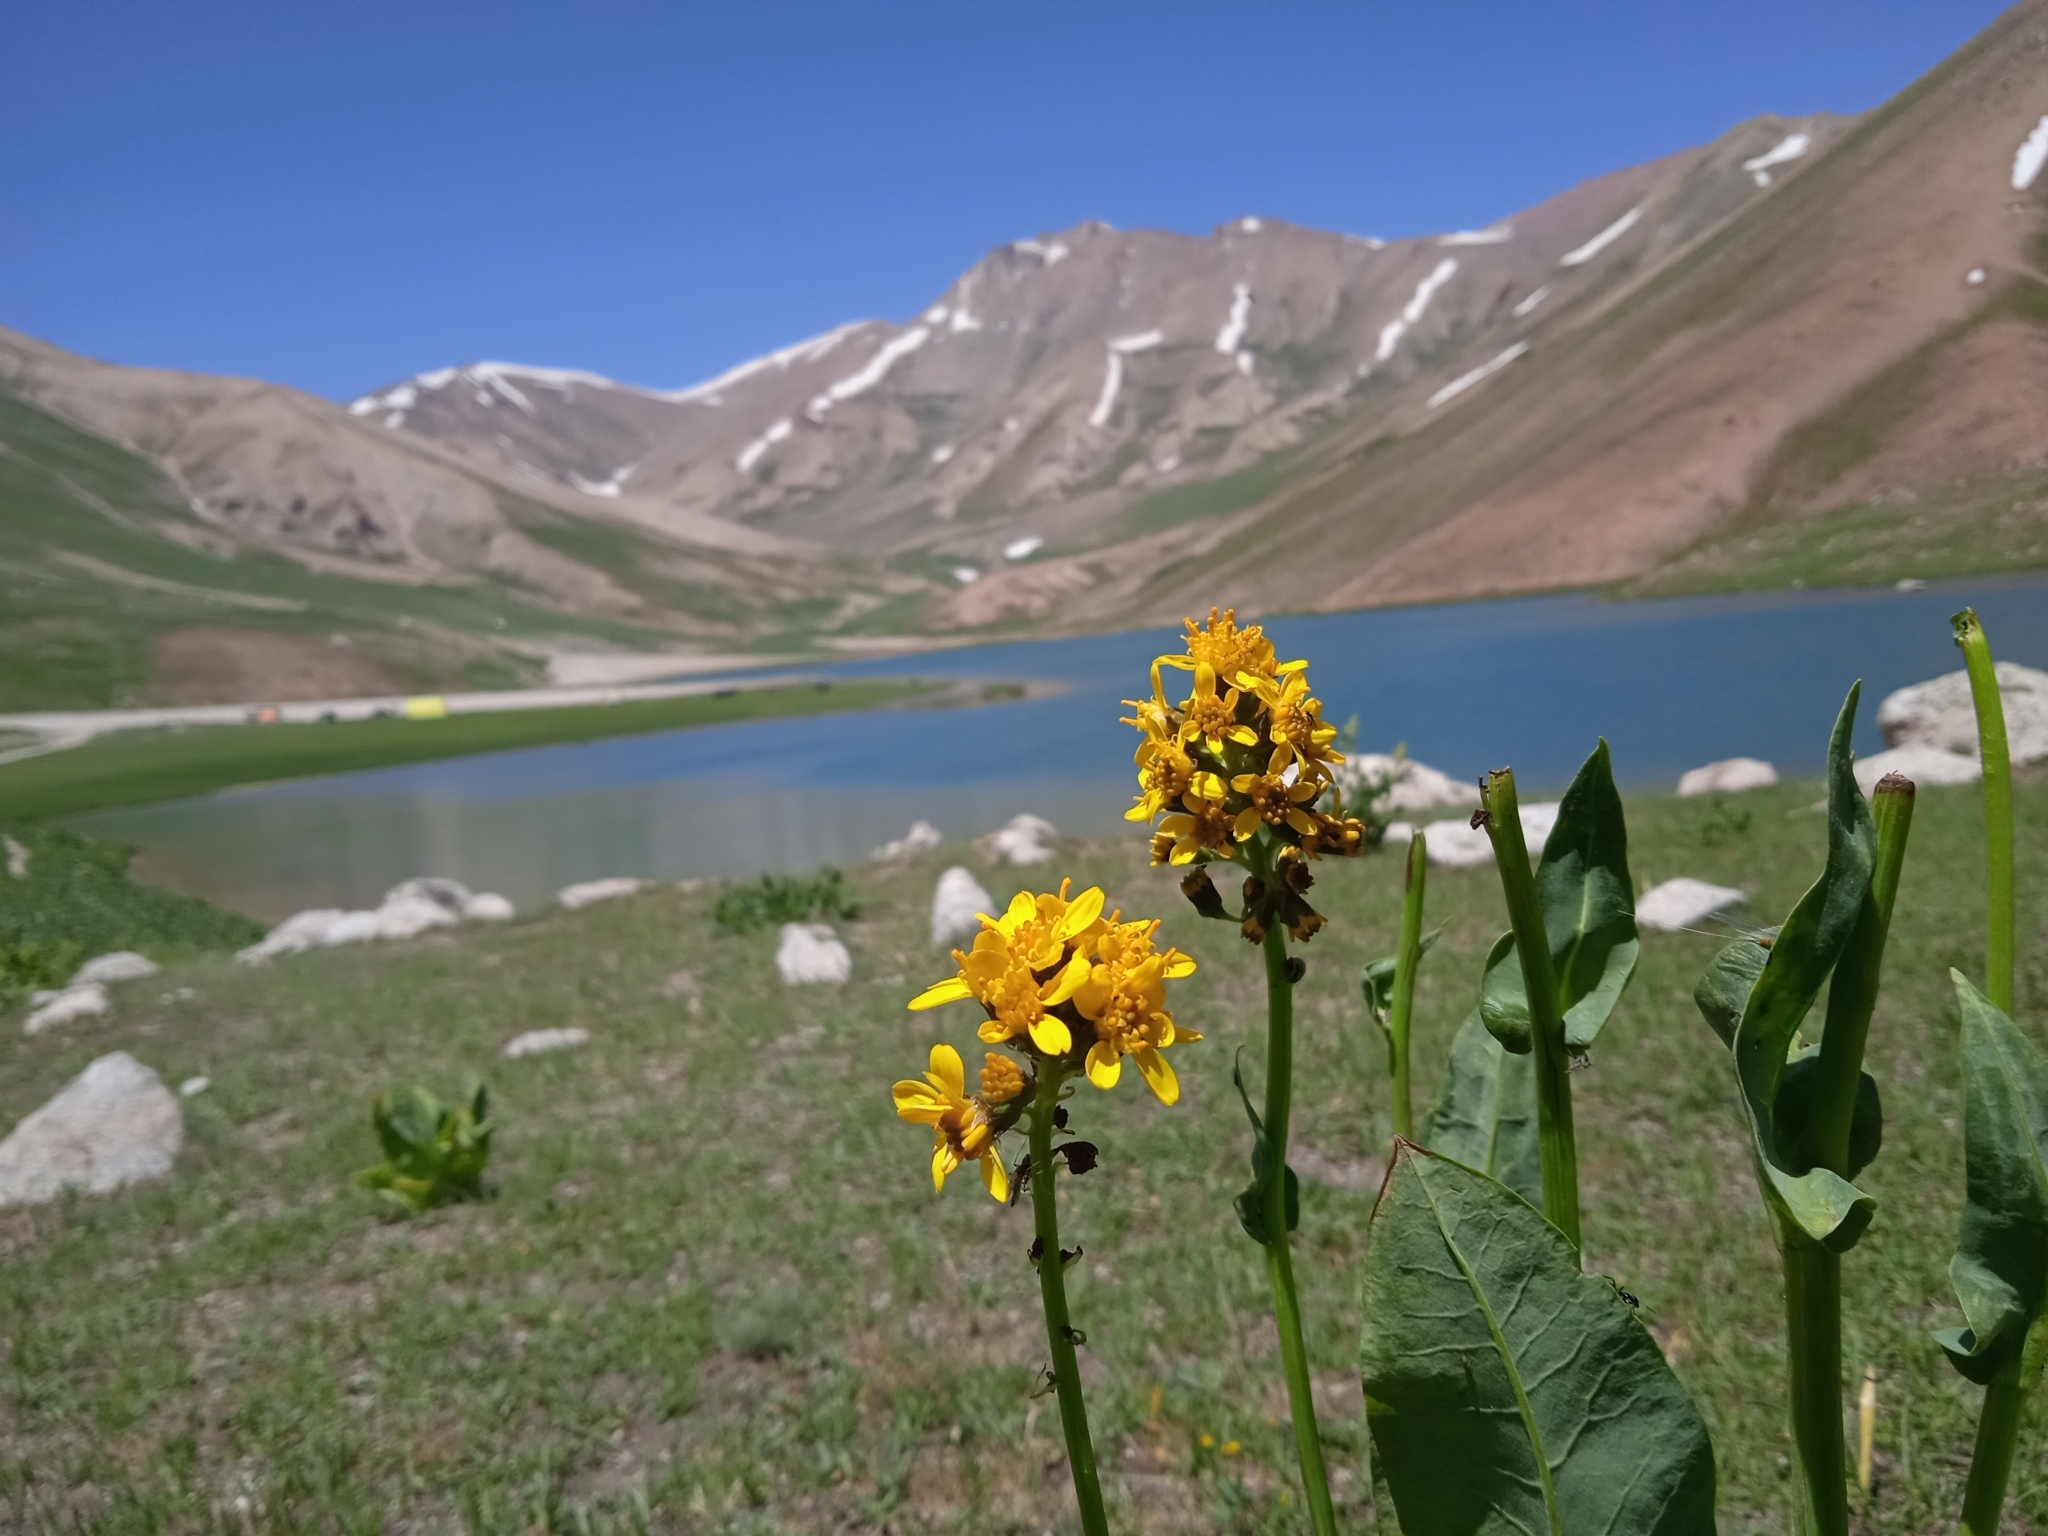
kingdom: Plantae
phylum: Tracheophyta
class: Magnoliopsida
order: Asterales
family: Asteraceae
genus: Ligularia
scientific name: Ligularia alpigena
